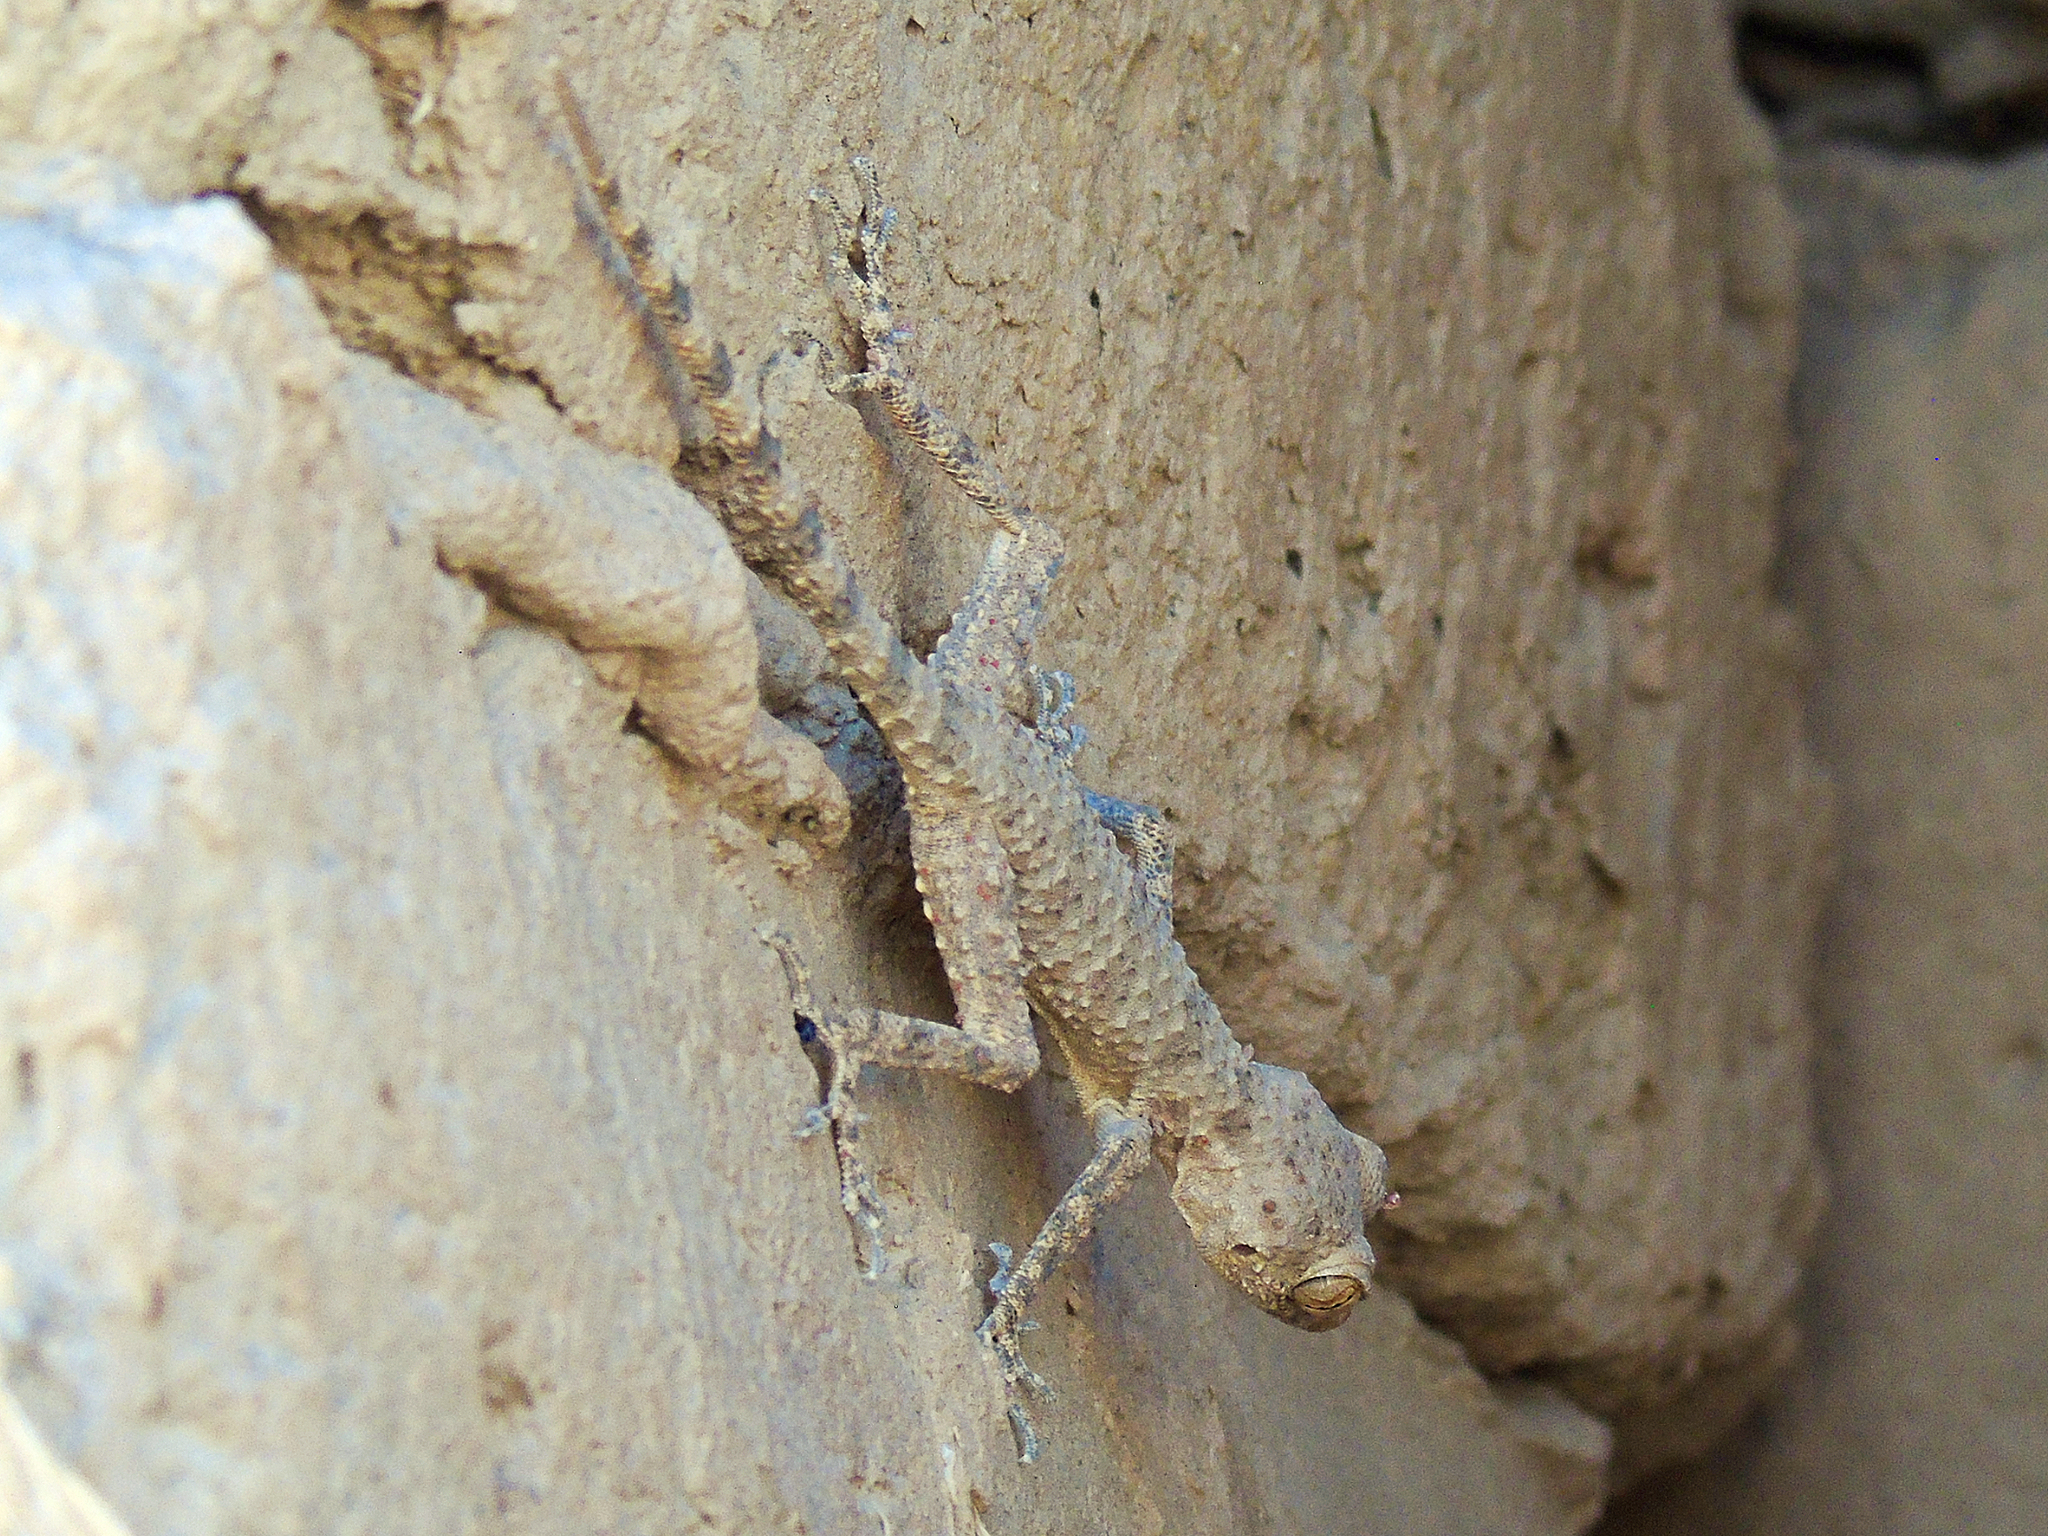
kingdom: Animalia
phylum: Chordata
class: Squamata
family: Gekkonidae
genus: Tenuidactylus
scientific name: Tenuidactylus fedtschenkoi
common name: Turkestan thin-toed gecko
